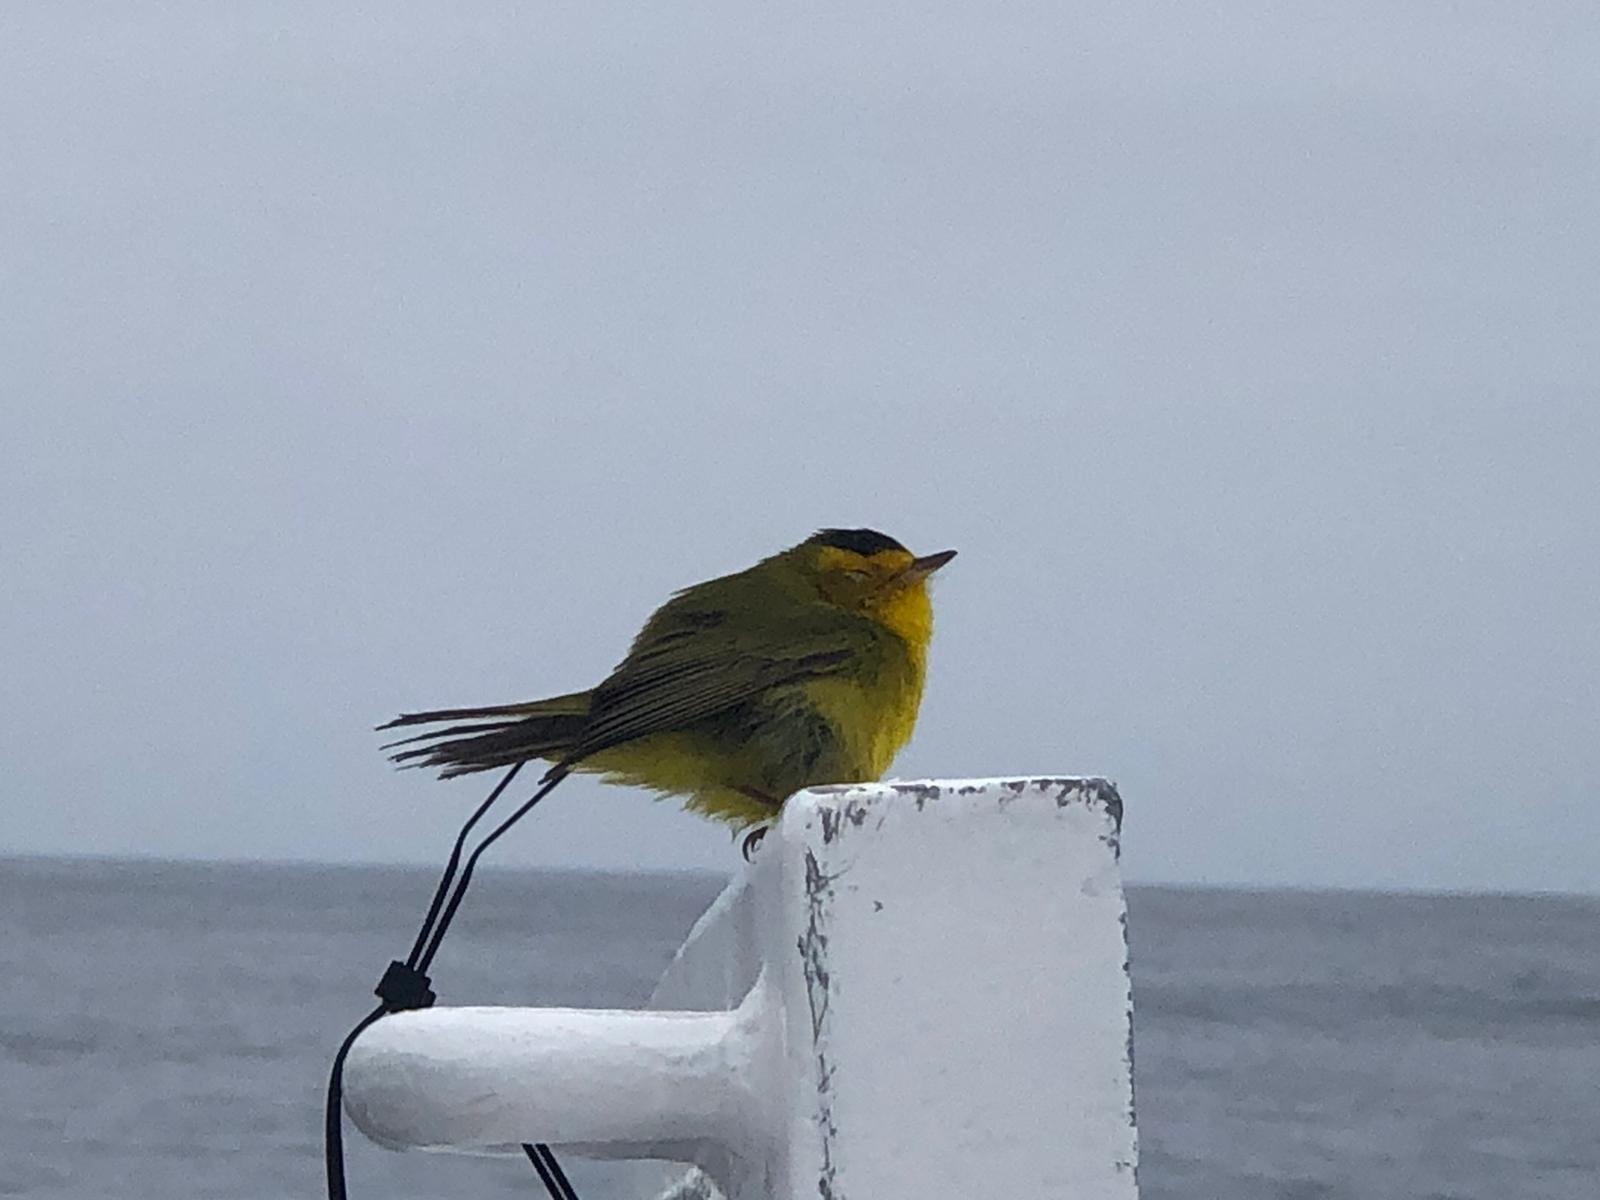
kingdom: Animalia
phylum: Chordata
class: Aves
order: Passeriformes
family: Parulidae
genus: Cardellina
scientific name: Cardellina pusilla
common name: Wilson's warbler
